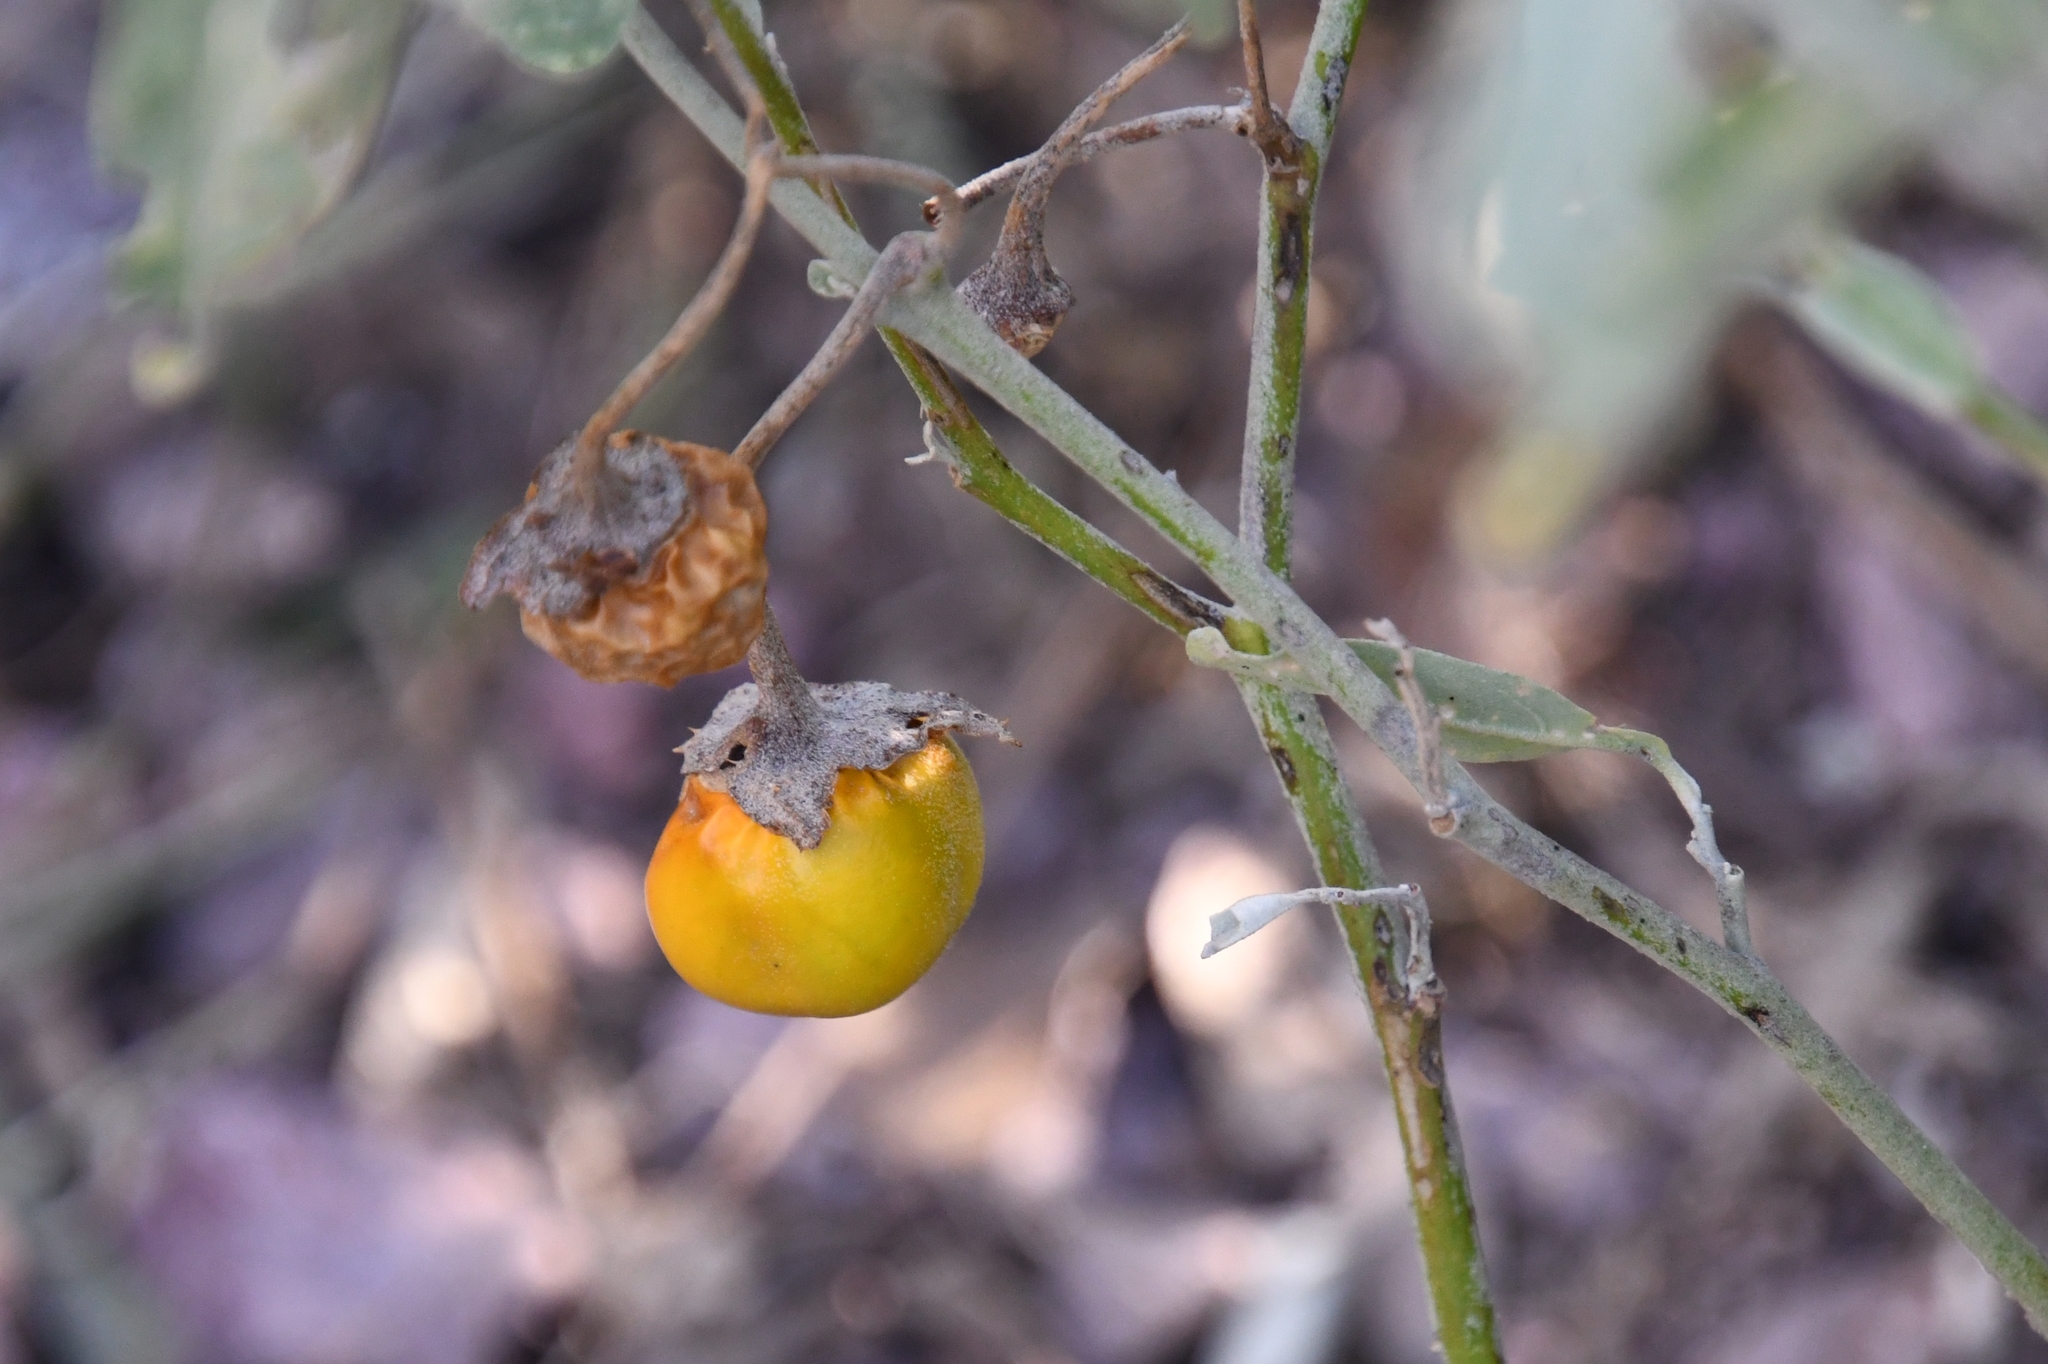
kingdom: Plantae
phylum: Tracheophyta
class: Magnoliopsida
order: Solanales
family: Solanaceae
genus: Solanum
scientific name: Solanum elaeagnifolium
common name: Silverleaf nightshade
